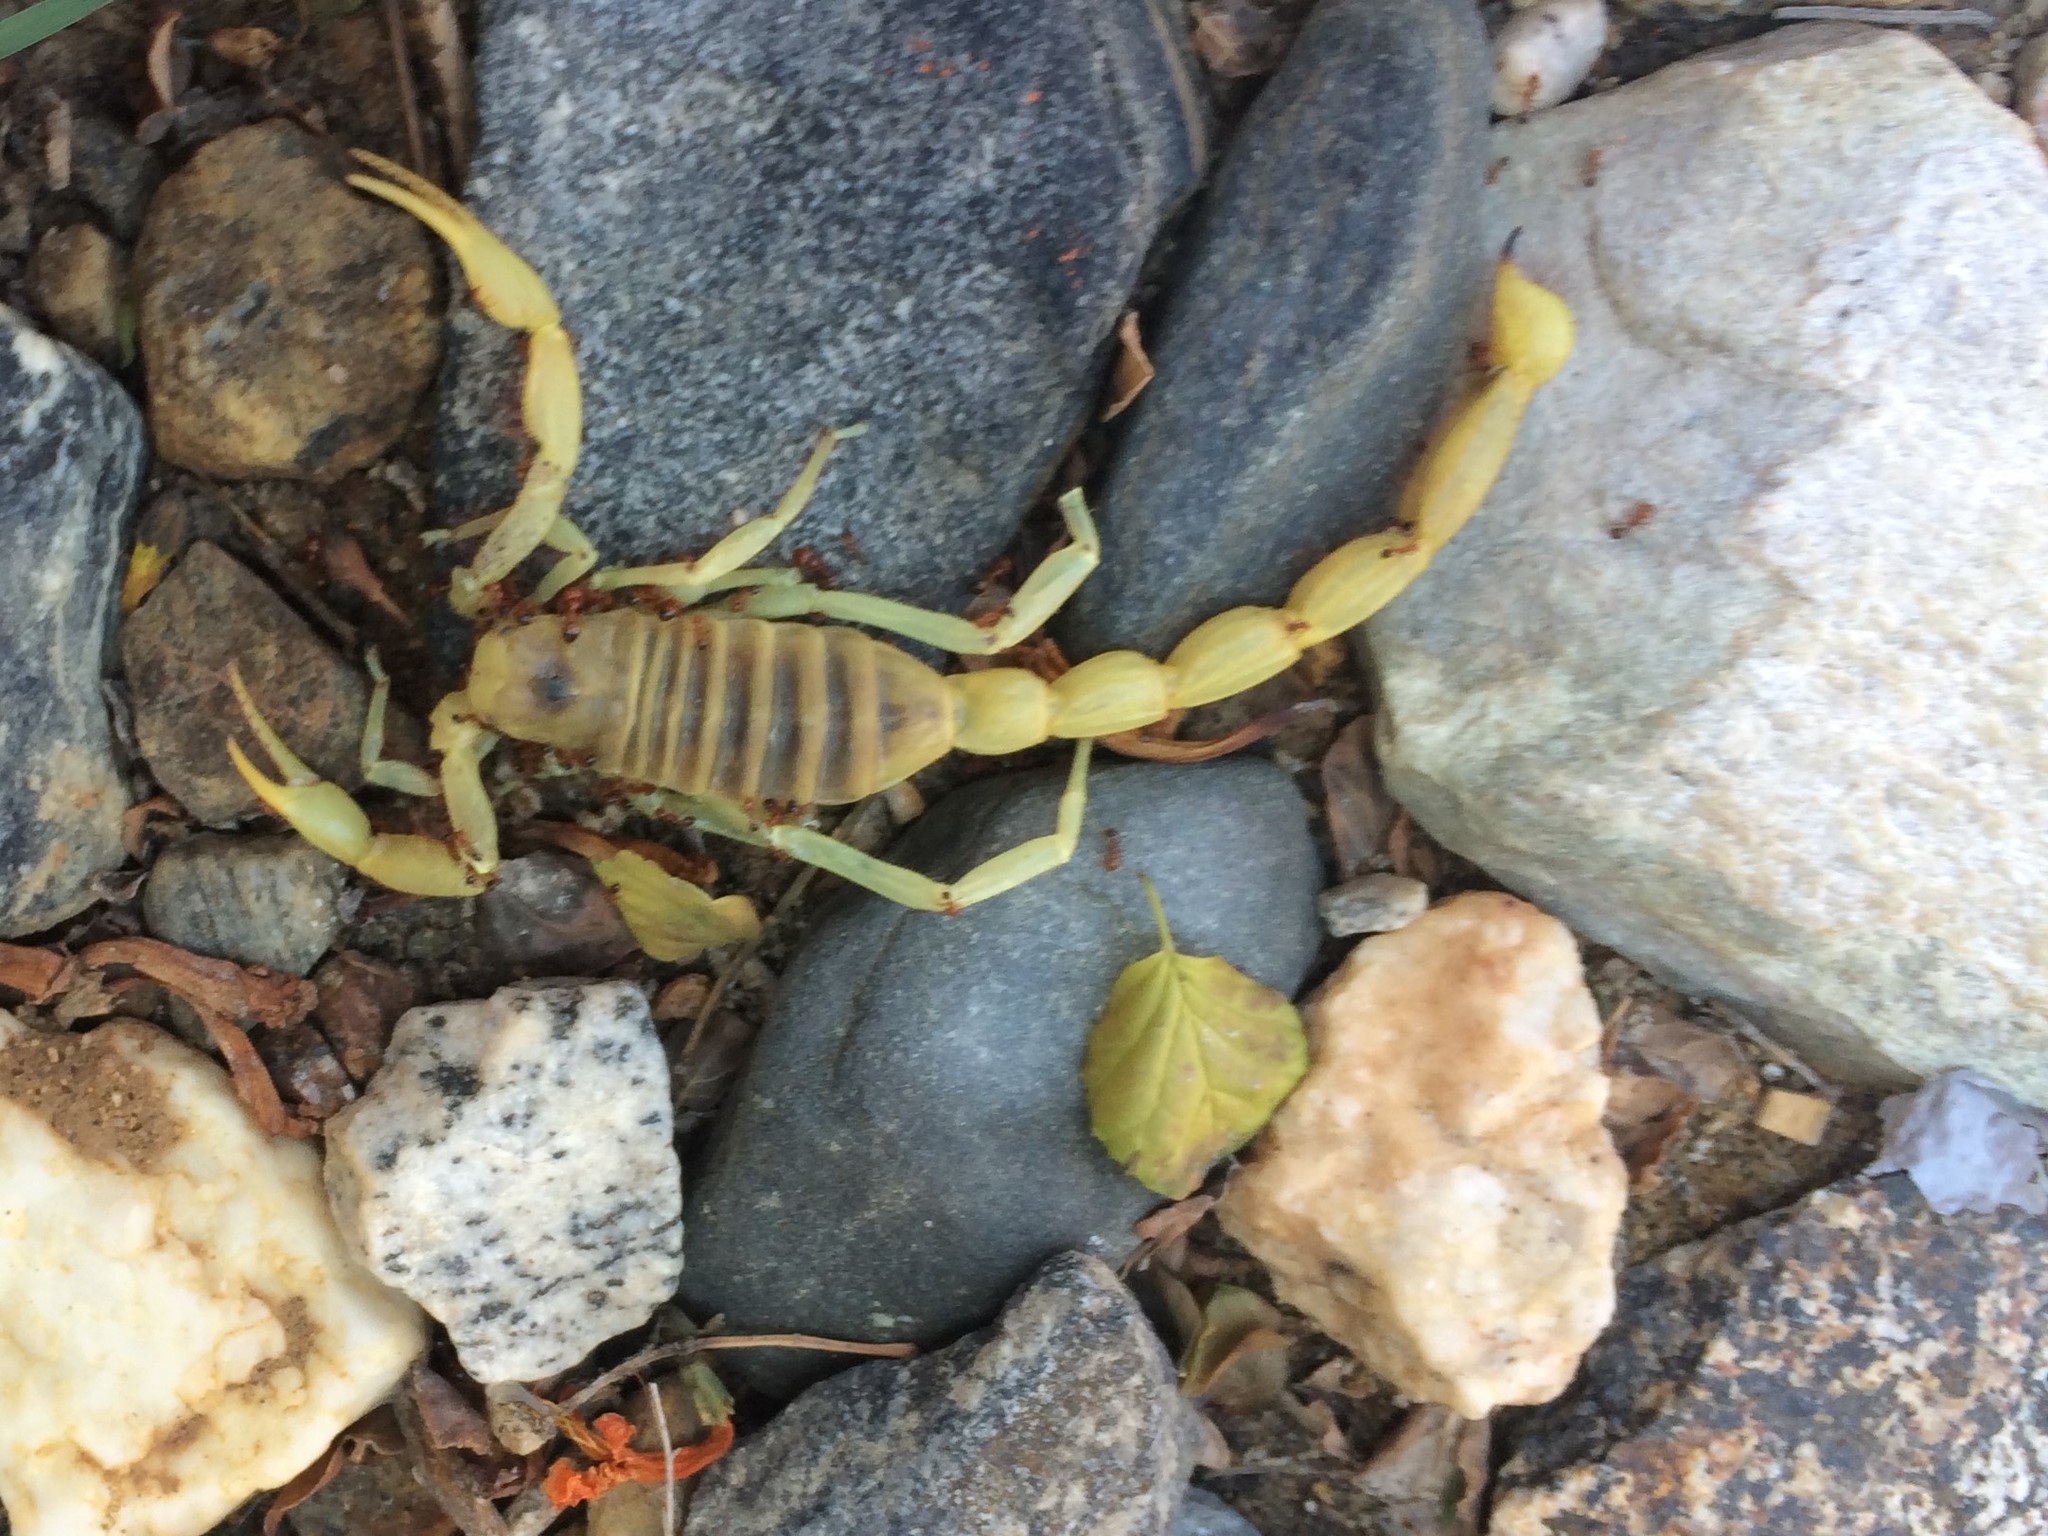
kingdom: Animalia
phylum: Arthropoda
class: Arachnida
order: Scorpiones
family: Hadruridae
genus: Hadrurus
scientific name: Hadrurus arizonensis
